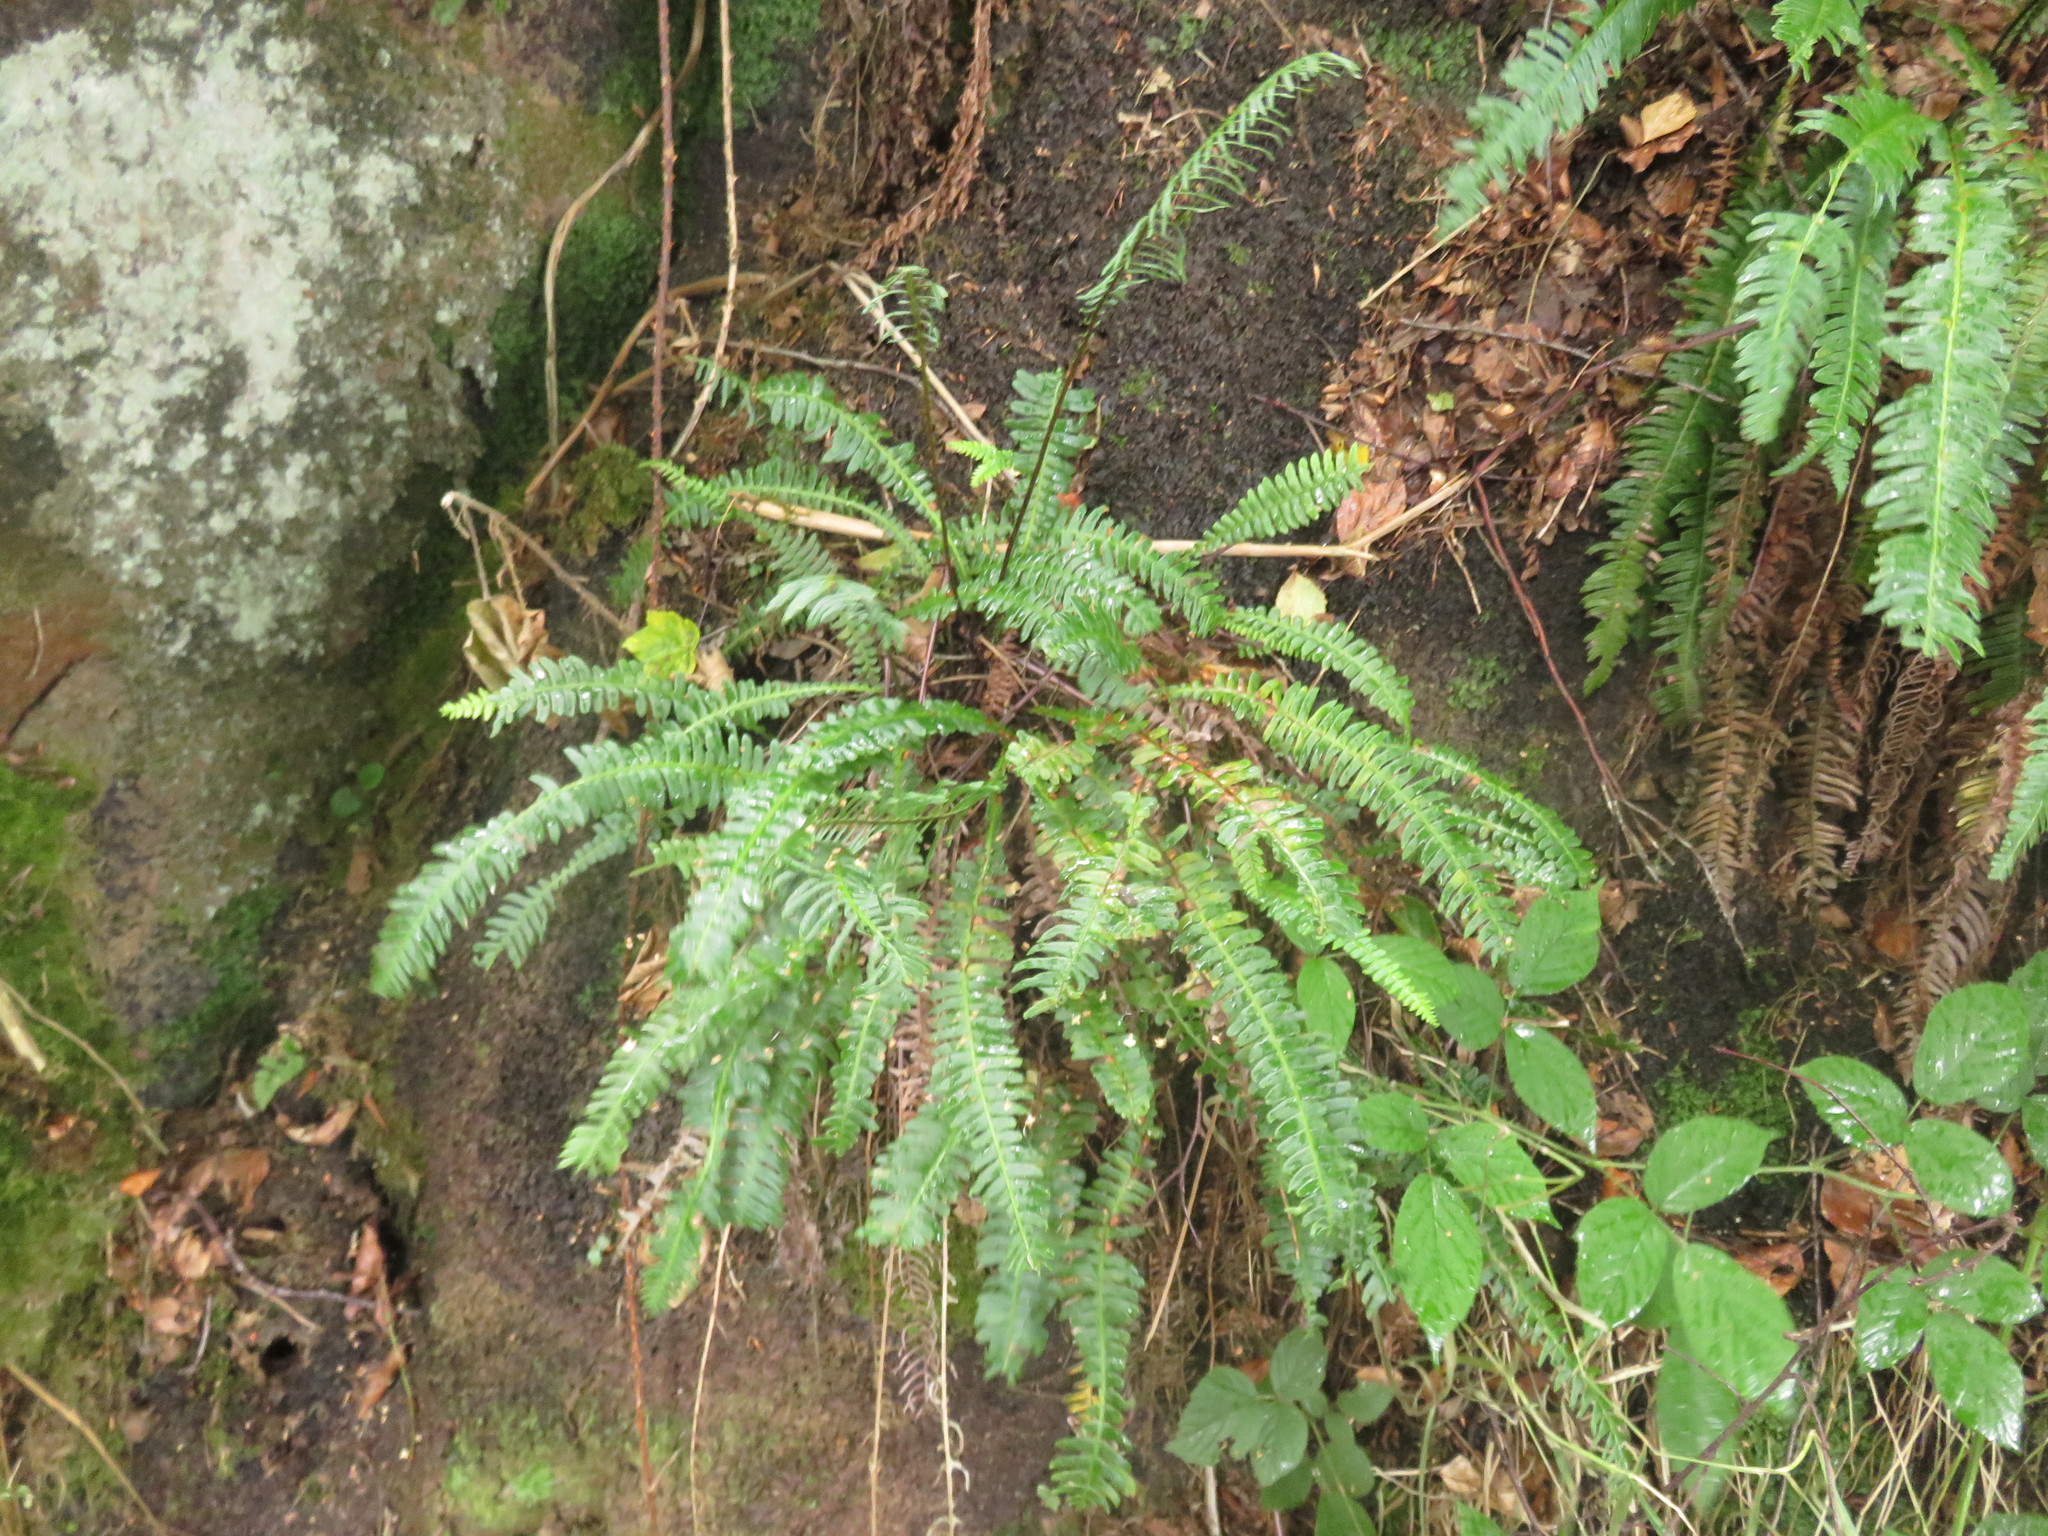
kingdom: Plantae
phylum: Tracheophyta
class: Polypodiopsida
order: Polypodiales
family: Blechnaceae
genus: Struthiopteris
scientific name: Struthiopteris spicant
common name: Deer fern
